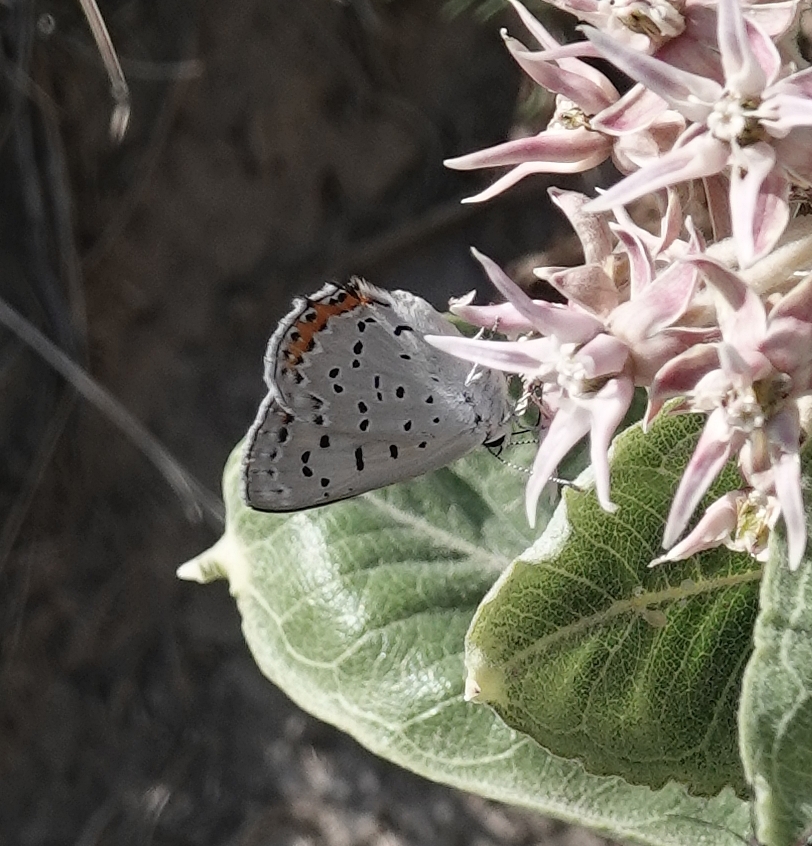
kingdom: Animalia
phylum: Arthropoda
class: Insecta
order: Lepidoptera
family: Lycaenidae
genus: Tharsalea
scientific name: Tharsalea dione
